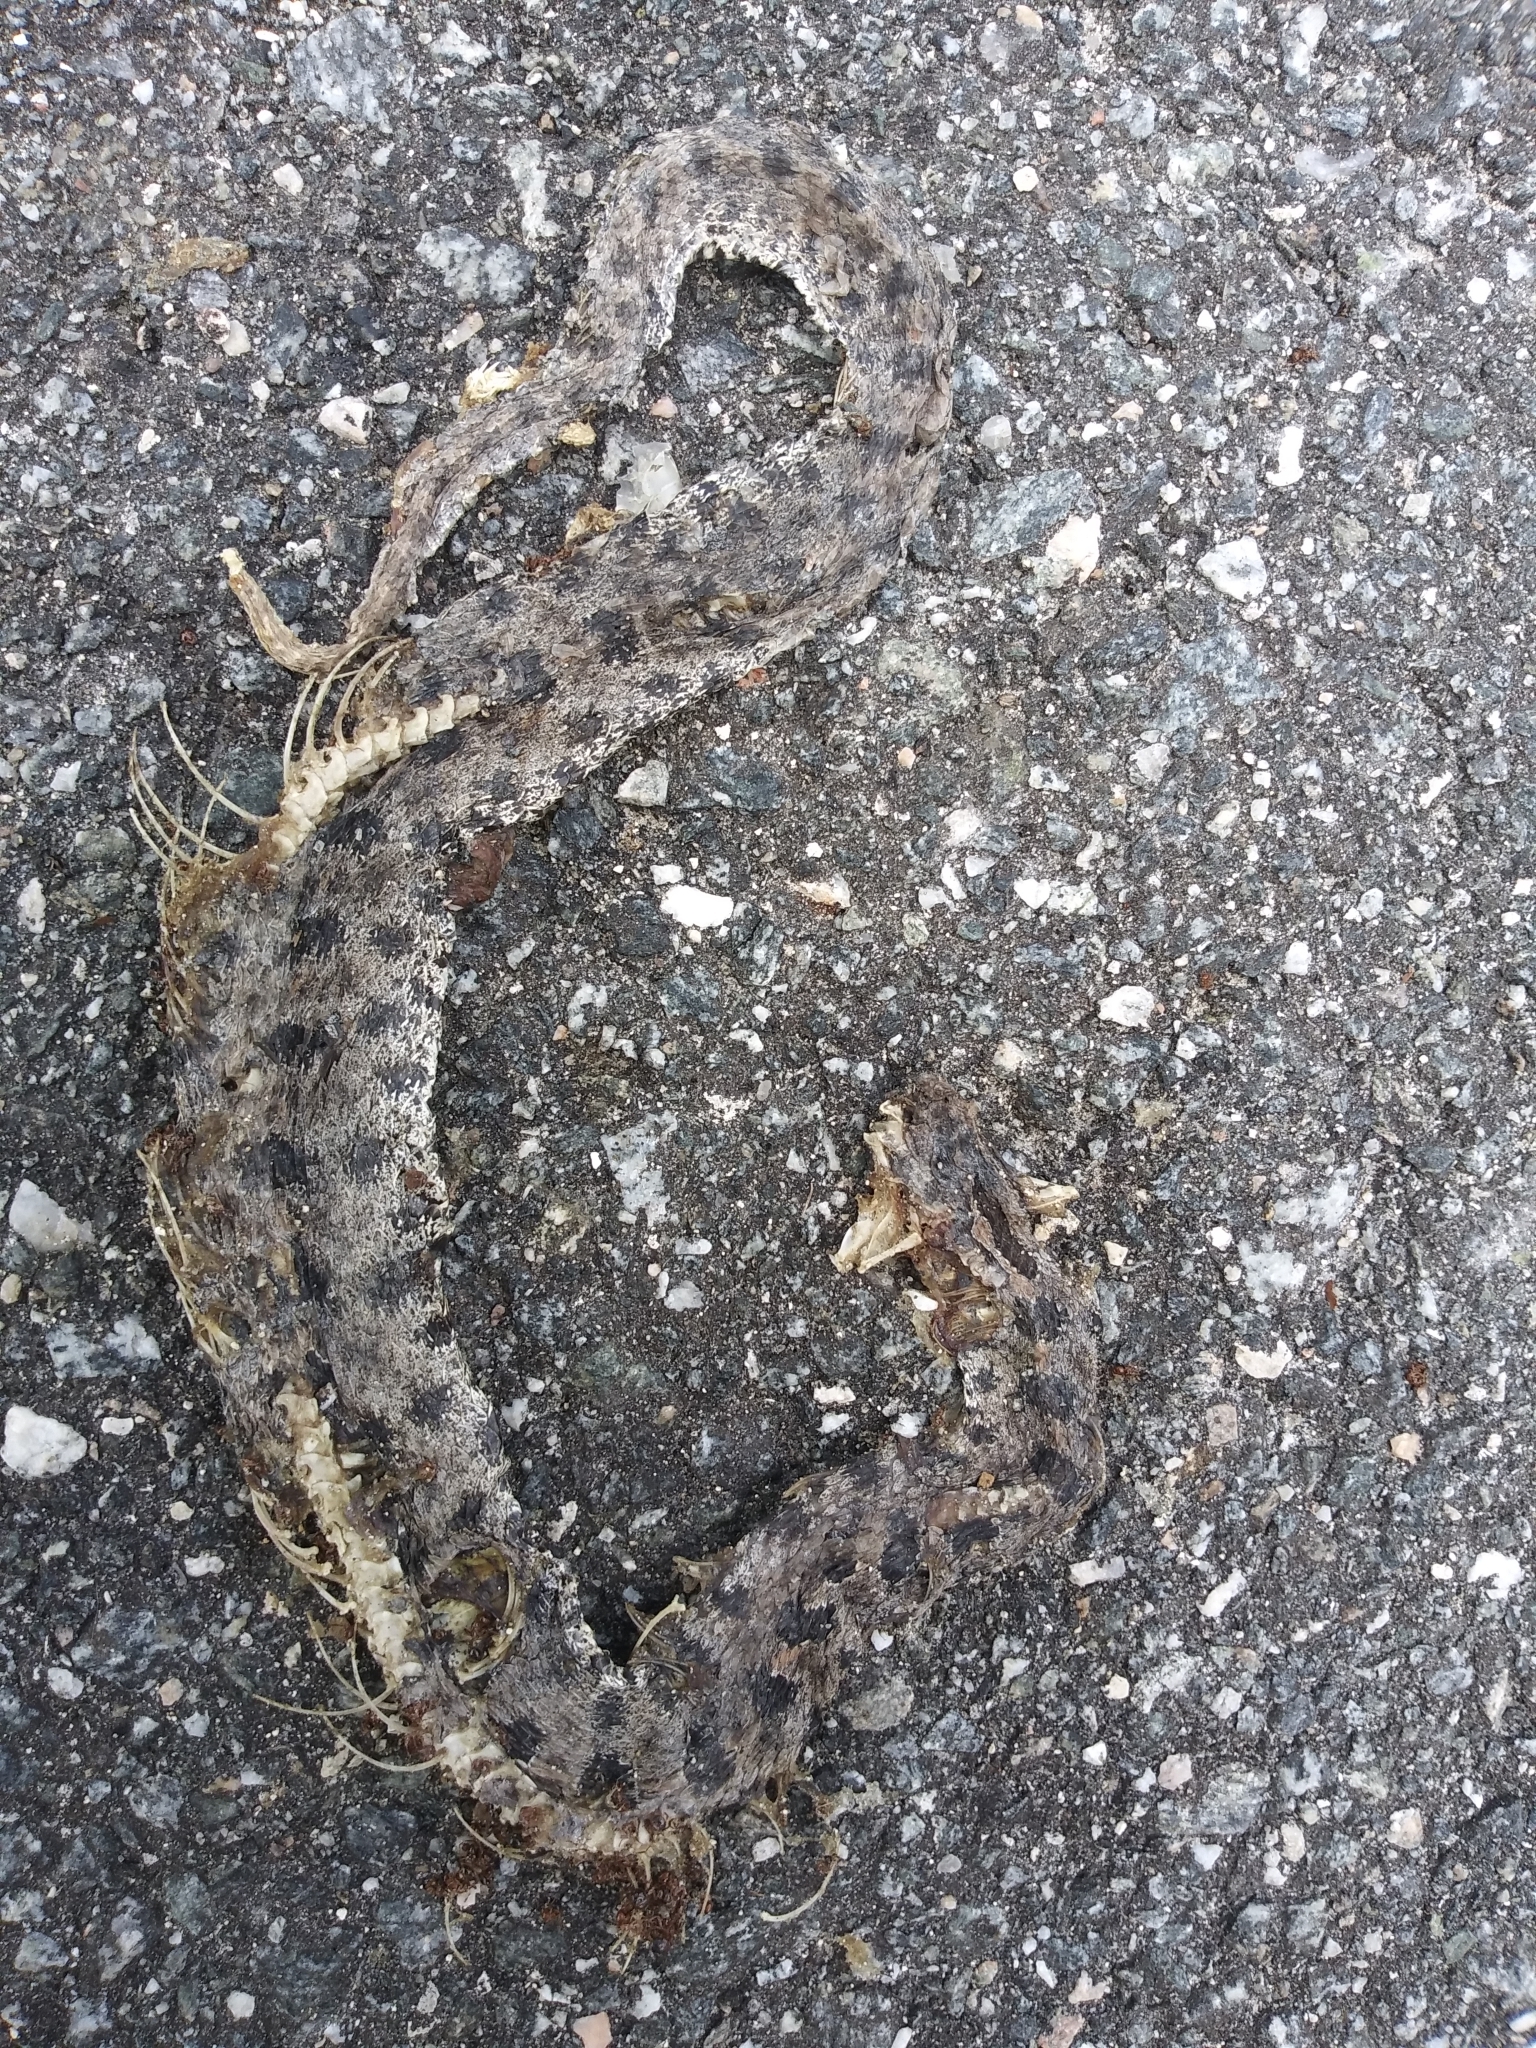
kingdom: Animalia
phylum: Chordata
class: Squamata
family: Viperidae
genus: Sistrurus
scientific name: Sistrurus miliarius
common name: Pygmy rattlesnake
